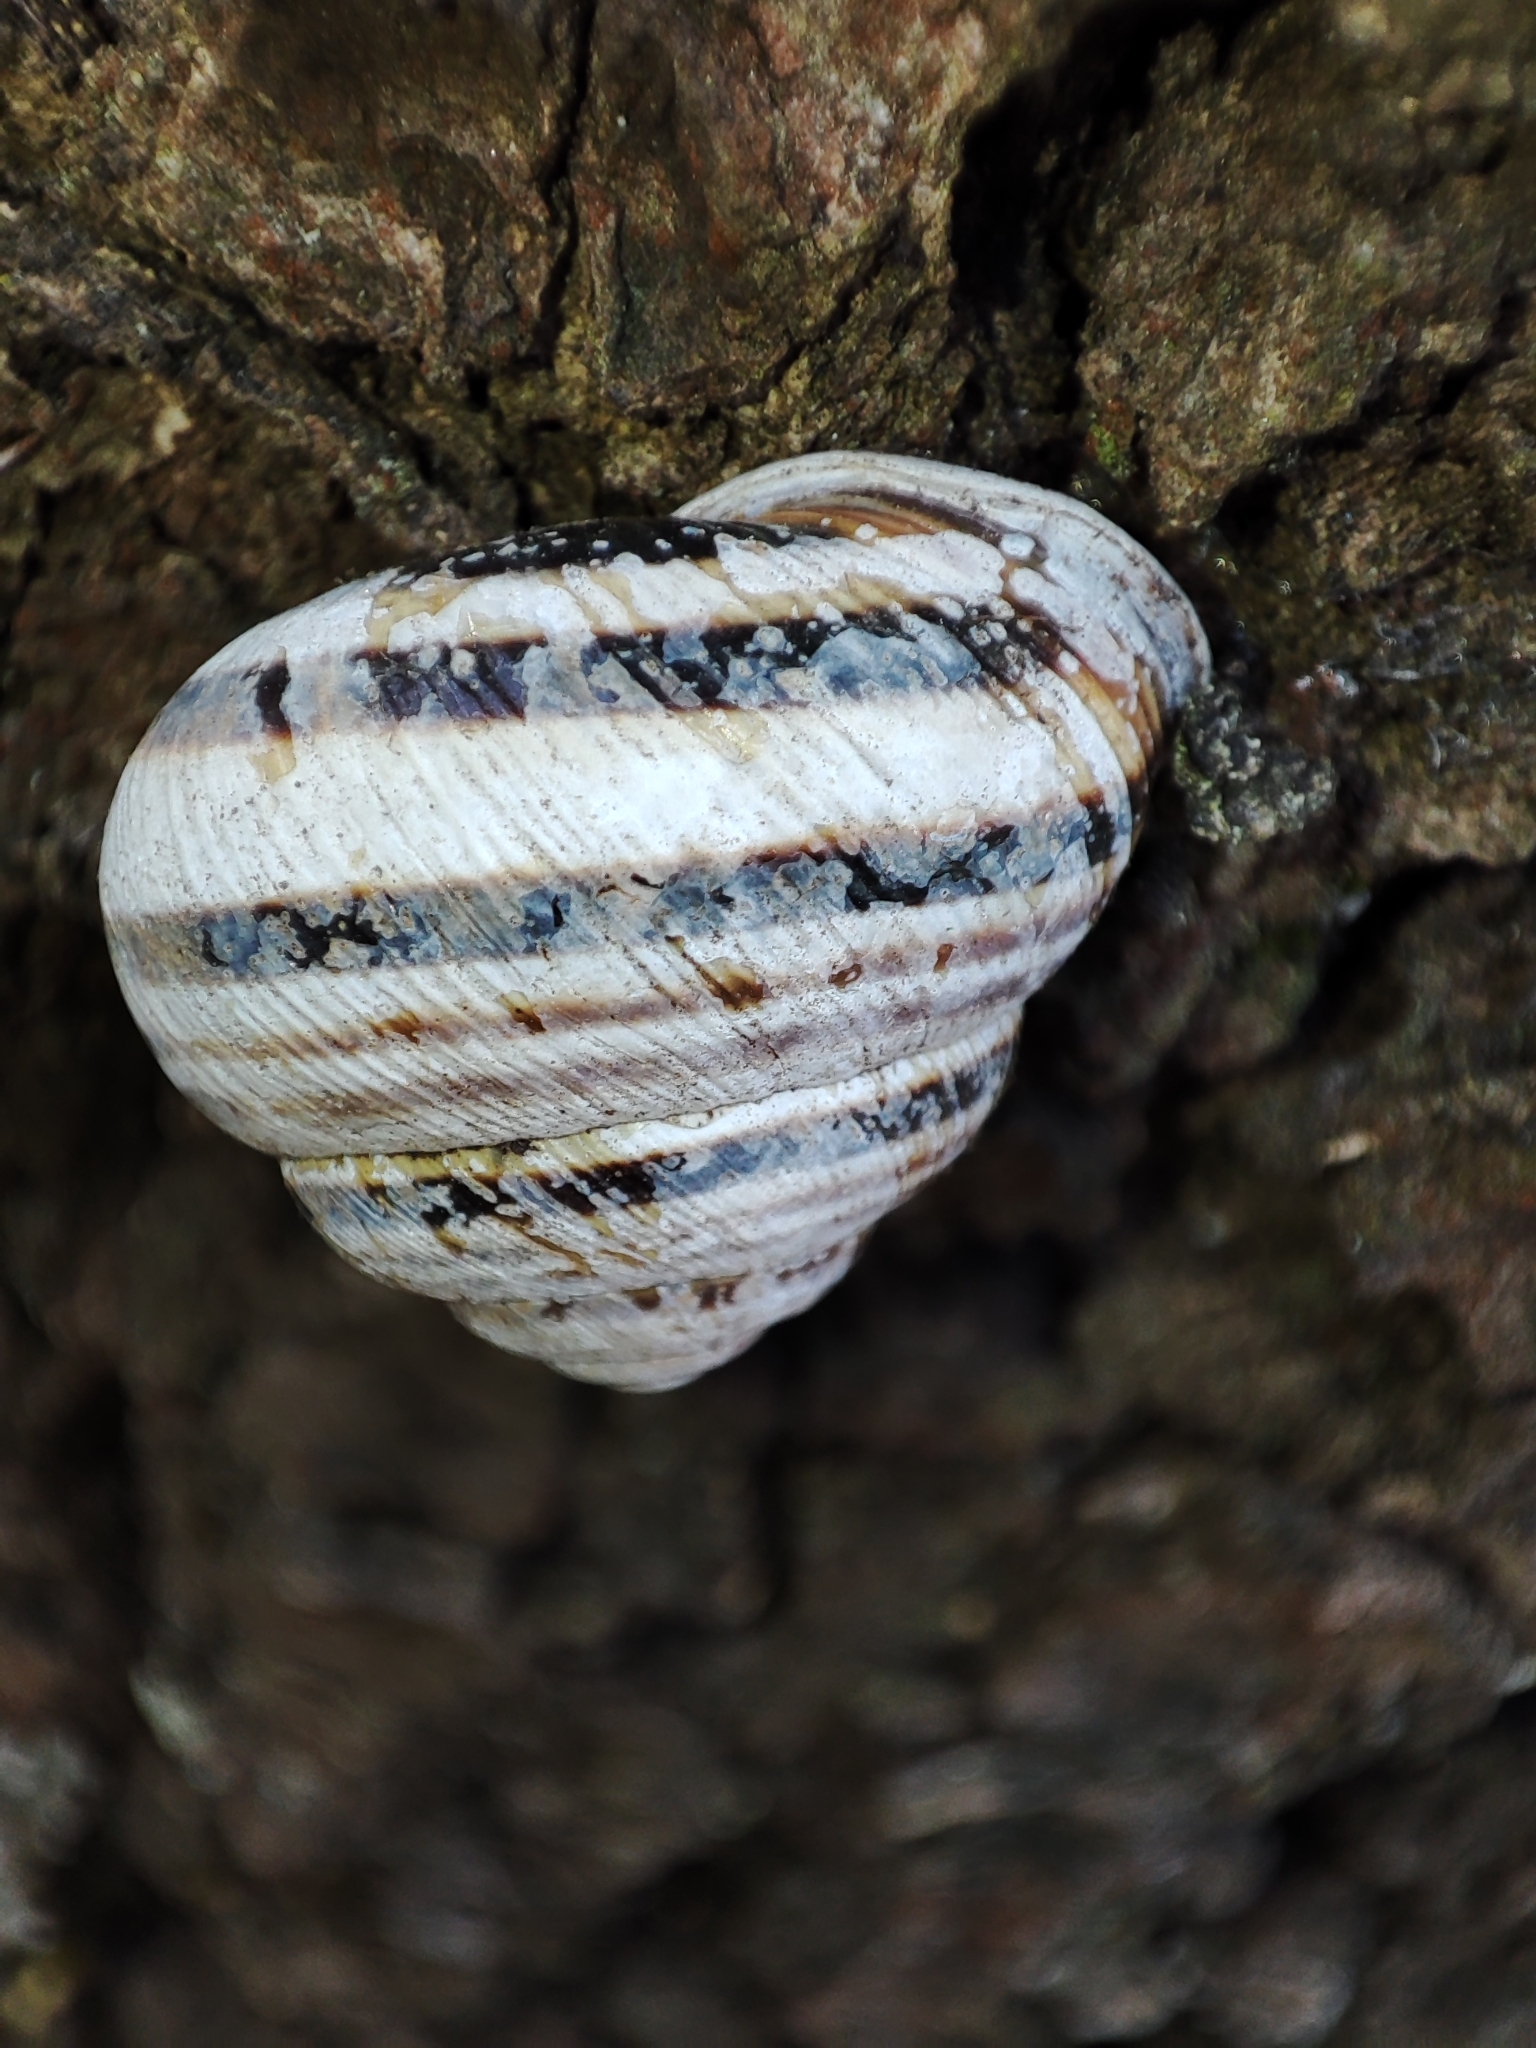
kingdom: Animalia
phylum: Mollusca
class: Gastropoda
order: Stylommatophora
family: Helicidae
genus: Caucasotachea
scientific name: Caucasotachea vindobonensis
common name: European helicid land snail
